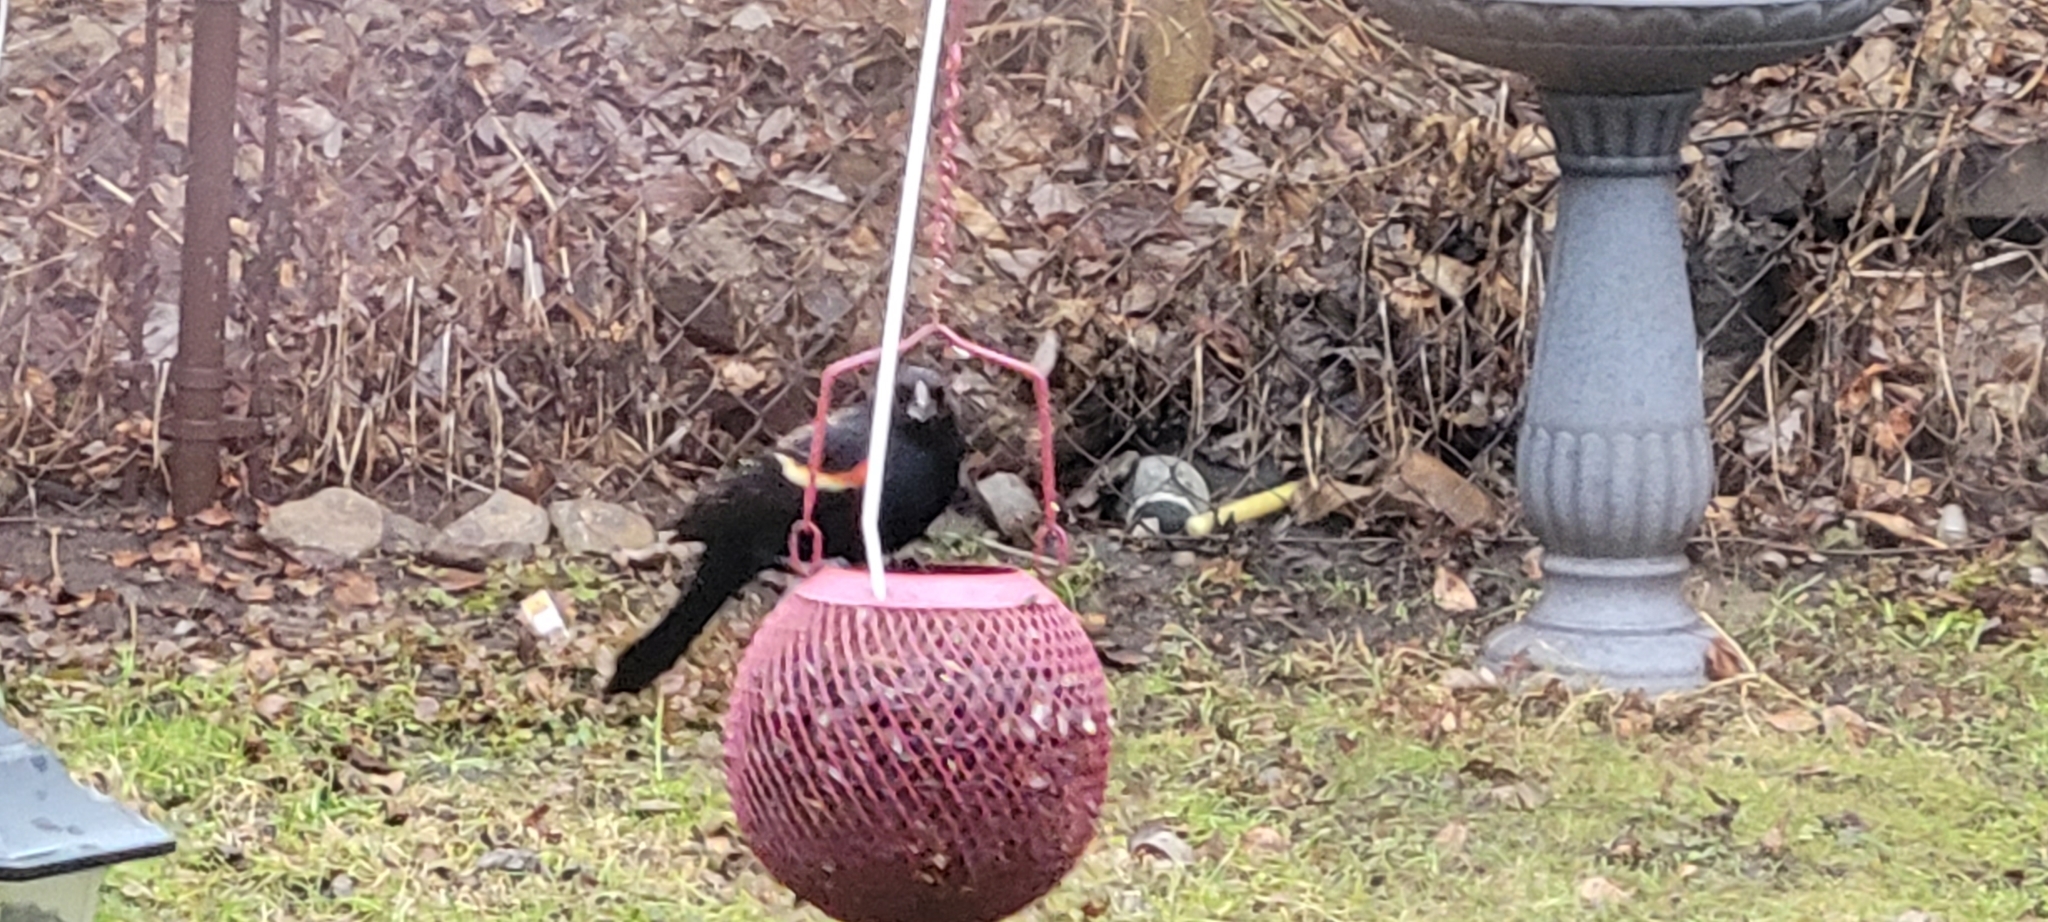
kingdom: Animalia
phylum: Chordata
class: Aves
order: Passeriformes
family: Icteridae
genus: Agelaius
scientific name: Agelaius phoeniceus
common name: Red-winged blackbird
